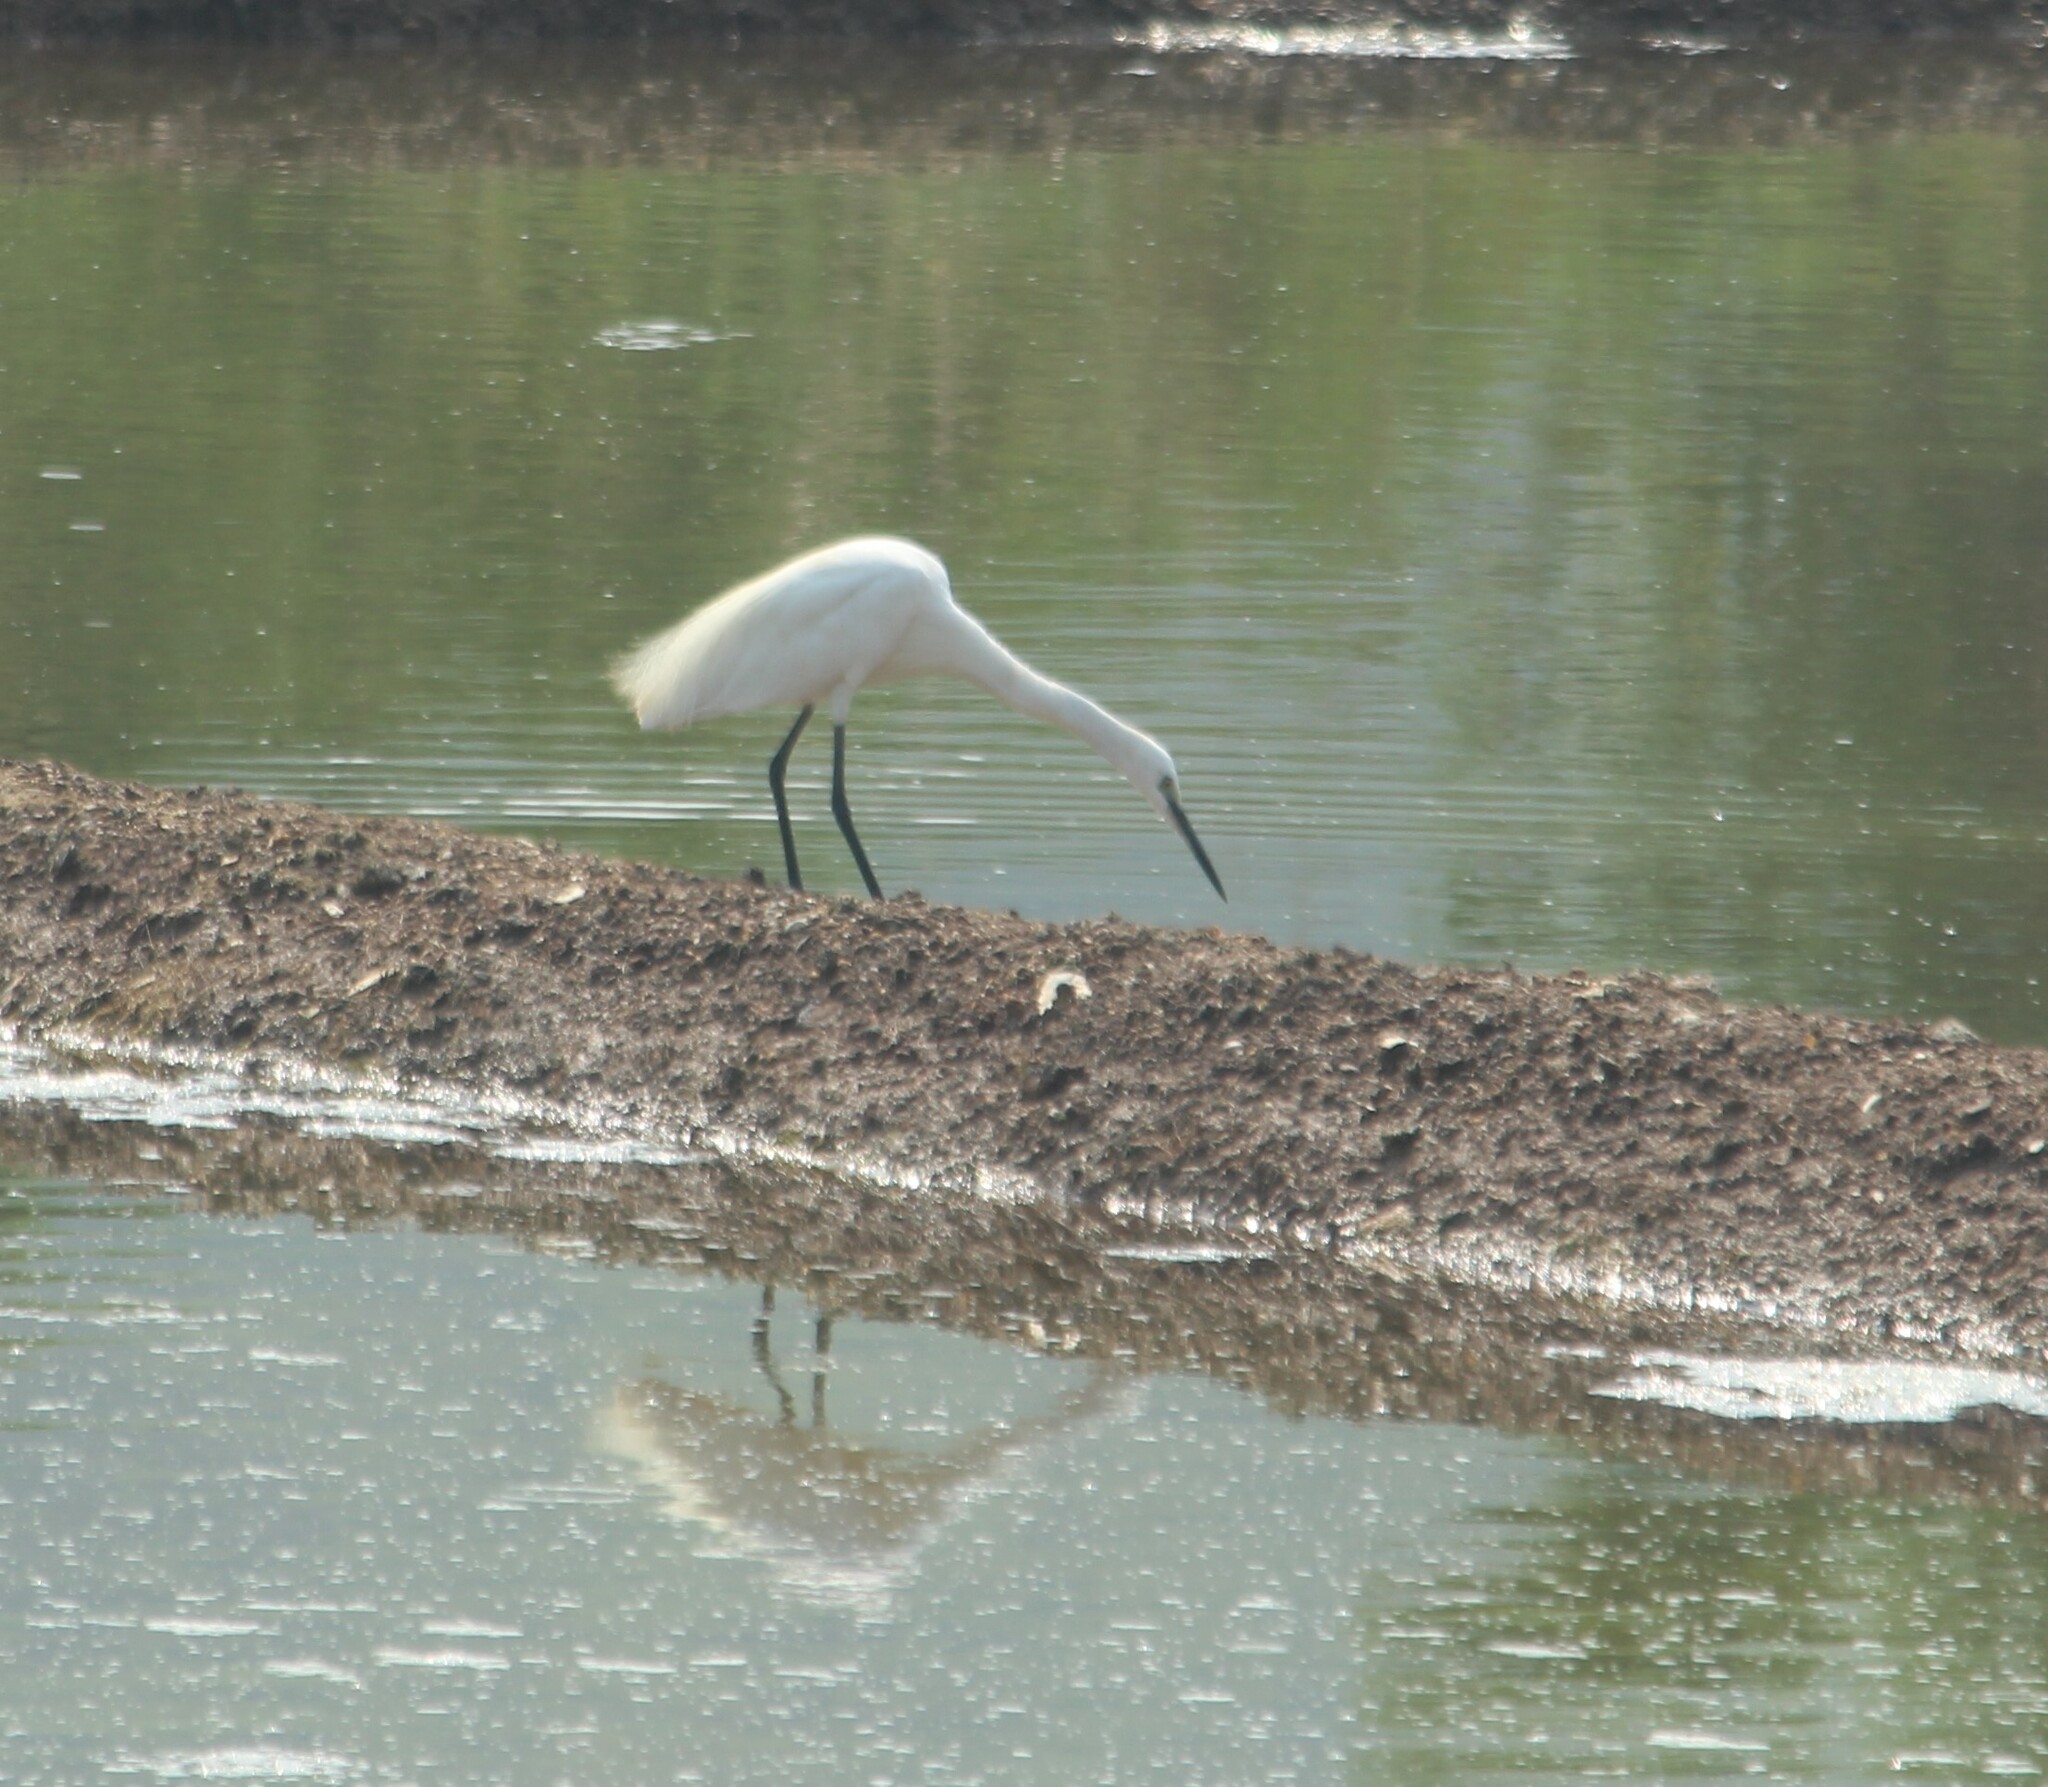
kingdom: Animalia
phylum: Chordata
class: Aves
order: Pelecaniformes
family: Ardeidae
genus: Egretta
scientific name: Egretta garzetta
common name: Little egret
